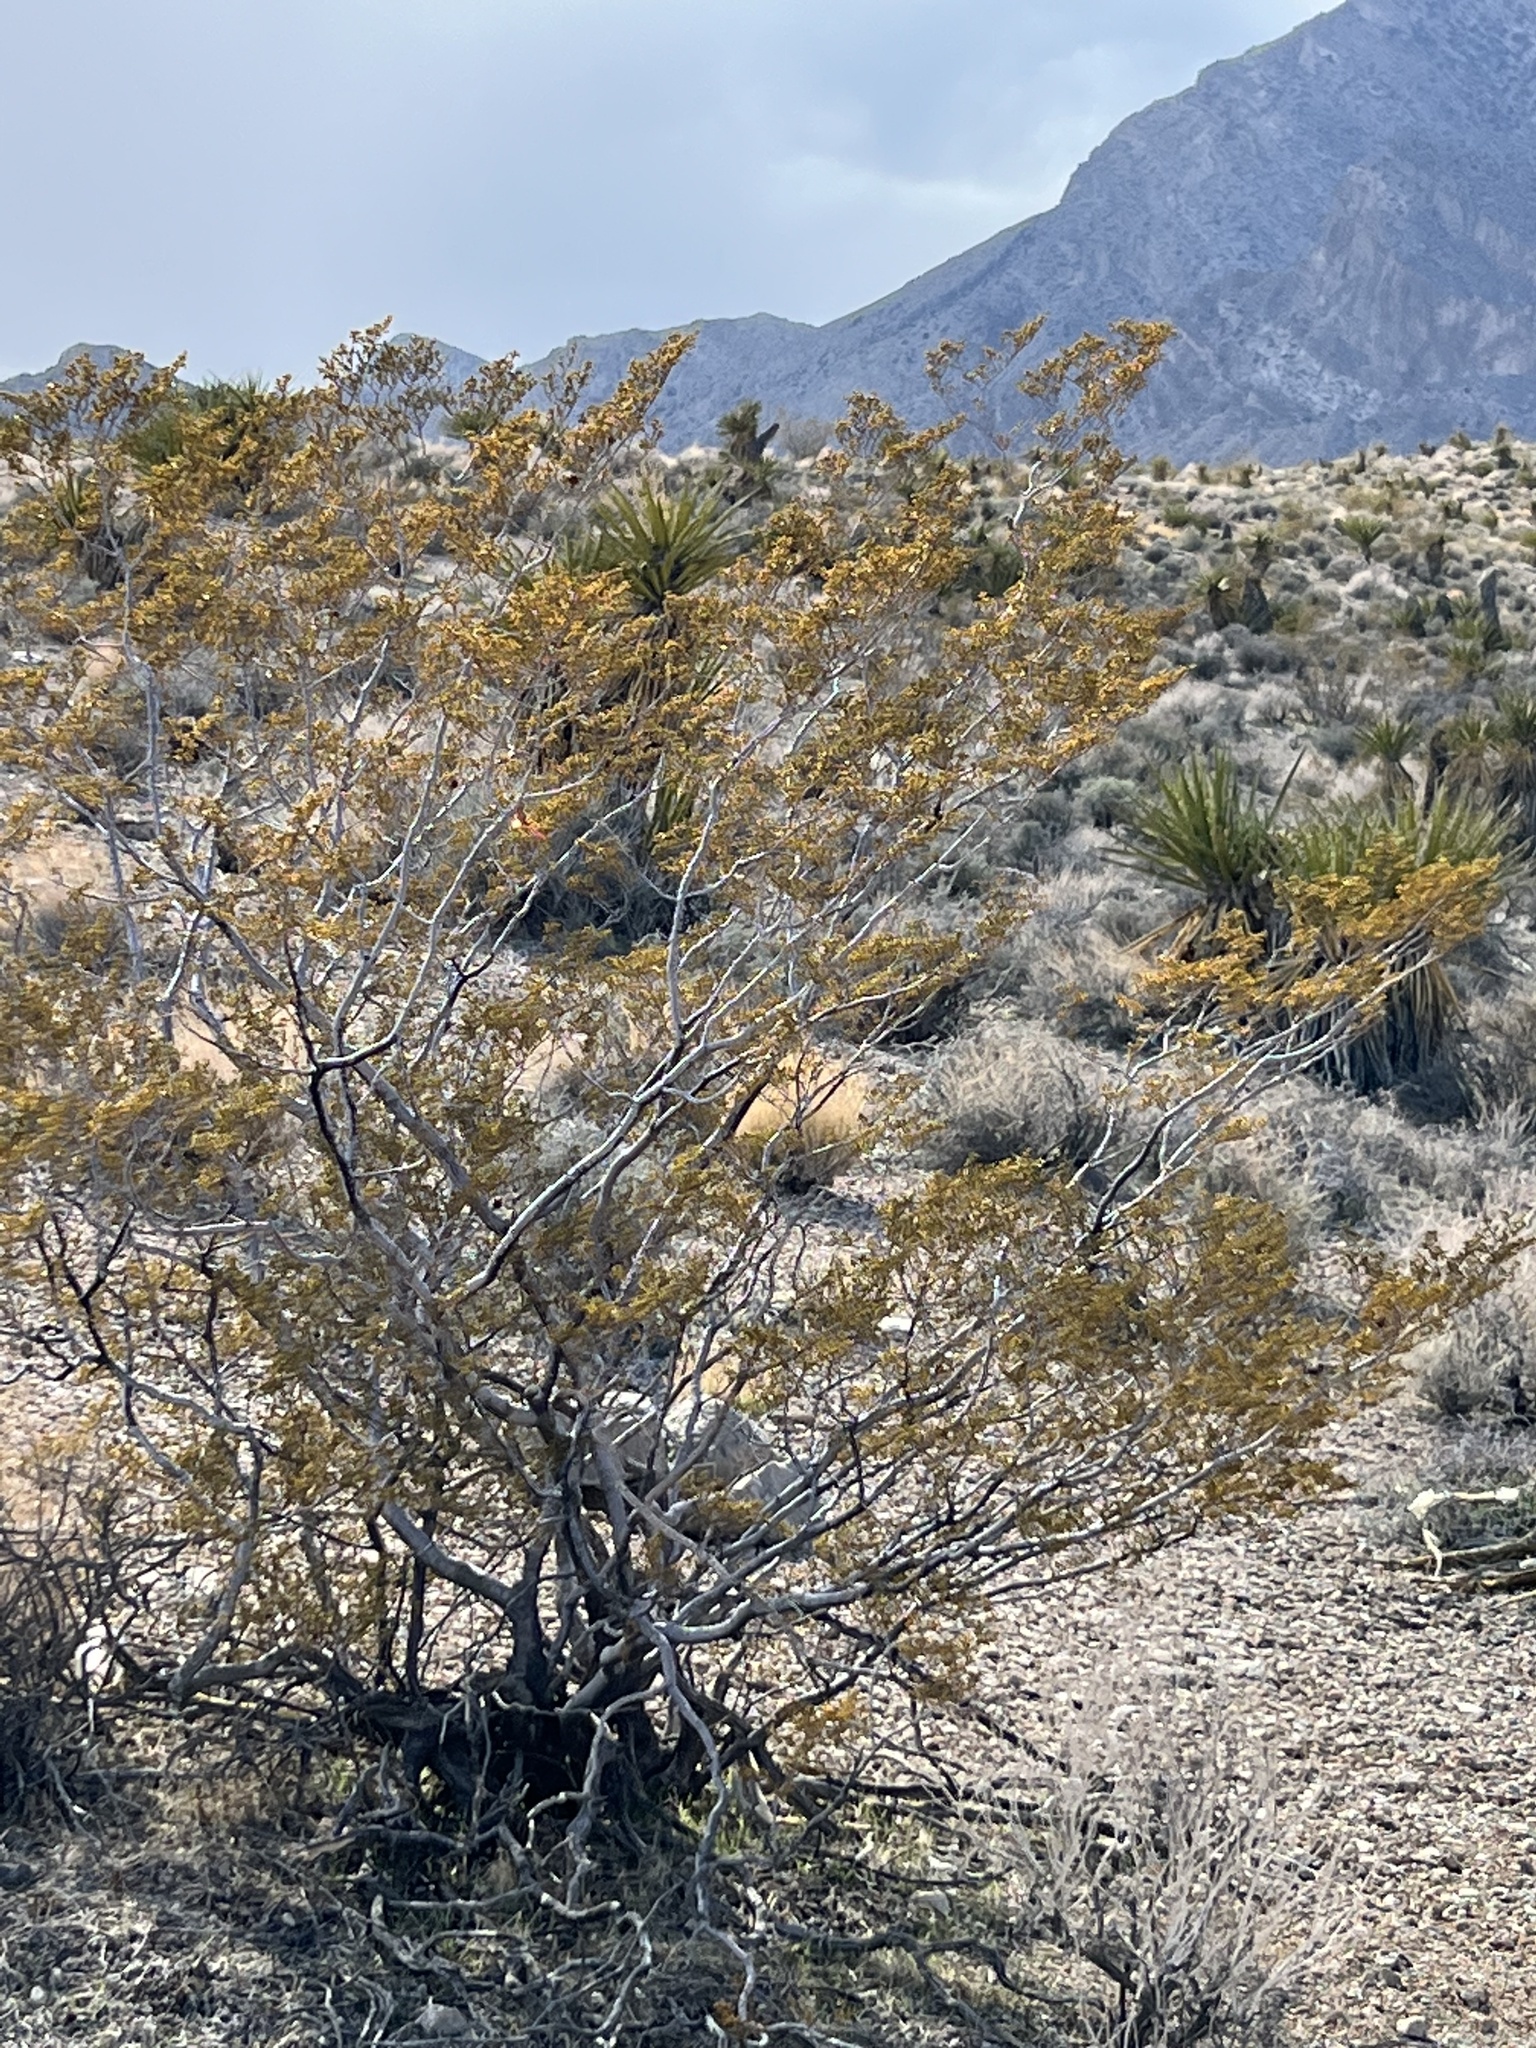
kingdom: Plantae
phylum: Tracheophyta
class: Magnoliopsida
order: Zygophyllales
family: Zygophyllaceae
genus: Larrea
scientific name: Larrea tridentata
